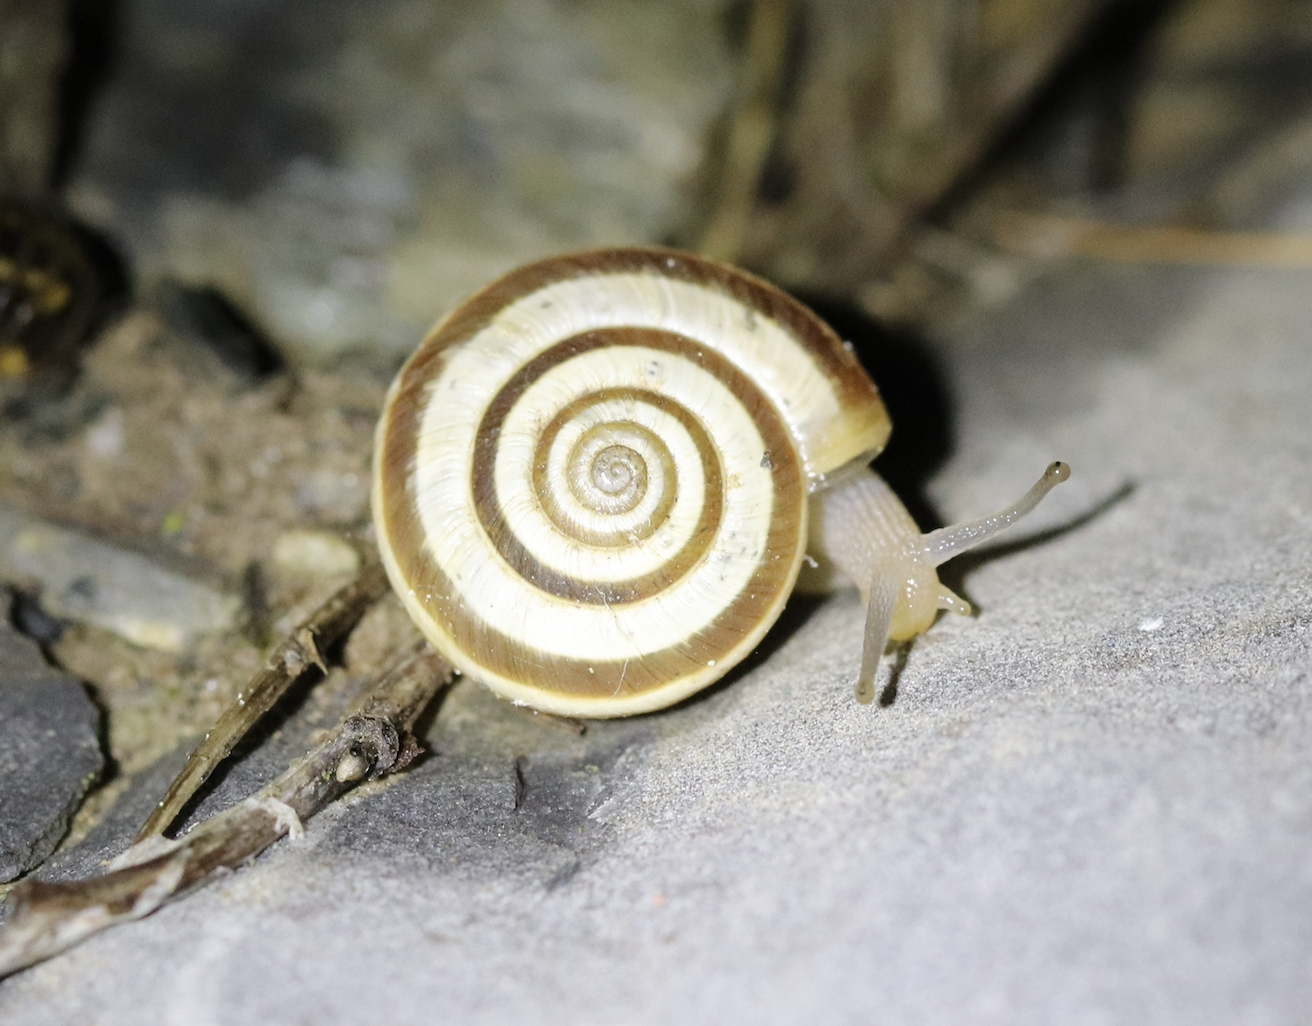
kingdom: Animalia
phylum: Mollusca
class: Gastropoda
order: Stylommatophora
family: Geomitridae
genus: Helicella
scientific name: Helicella itala
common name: Heath snail
